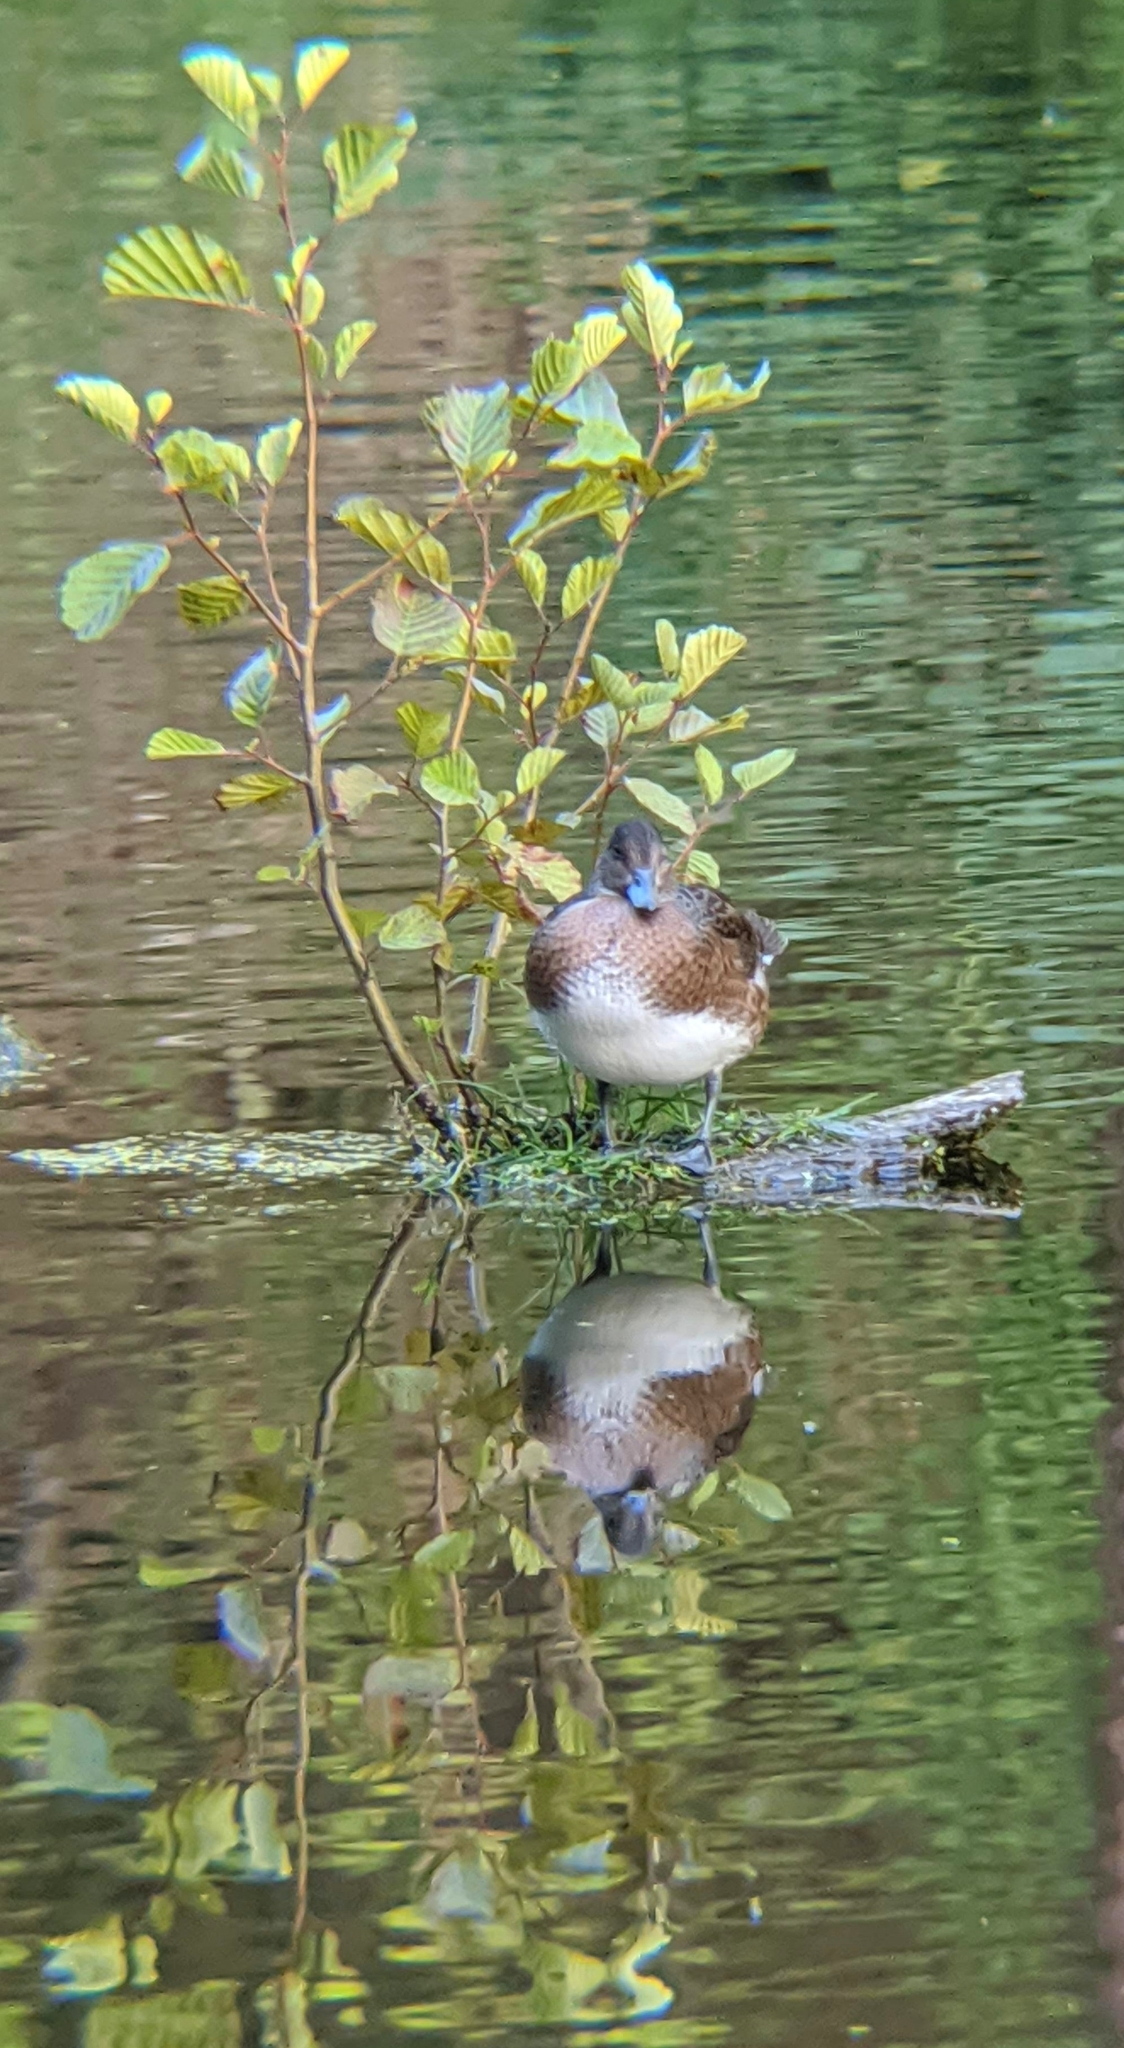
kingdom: Animalia
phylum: Chordata
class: Aves
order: Anseriformes
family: Anatidae
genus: Mareca
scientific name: Mareca penelope
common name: Eurasian wigeon
